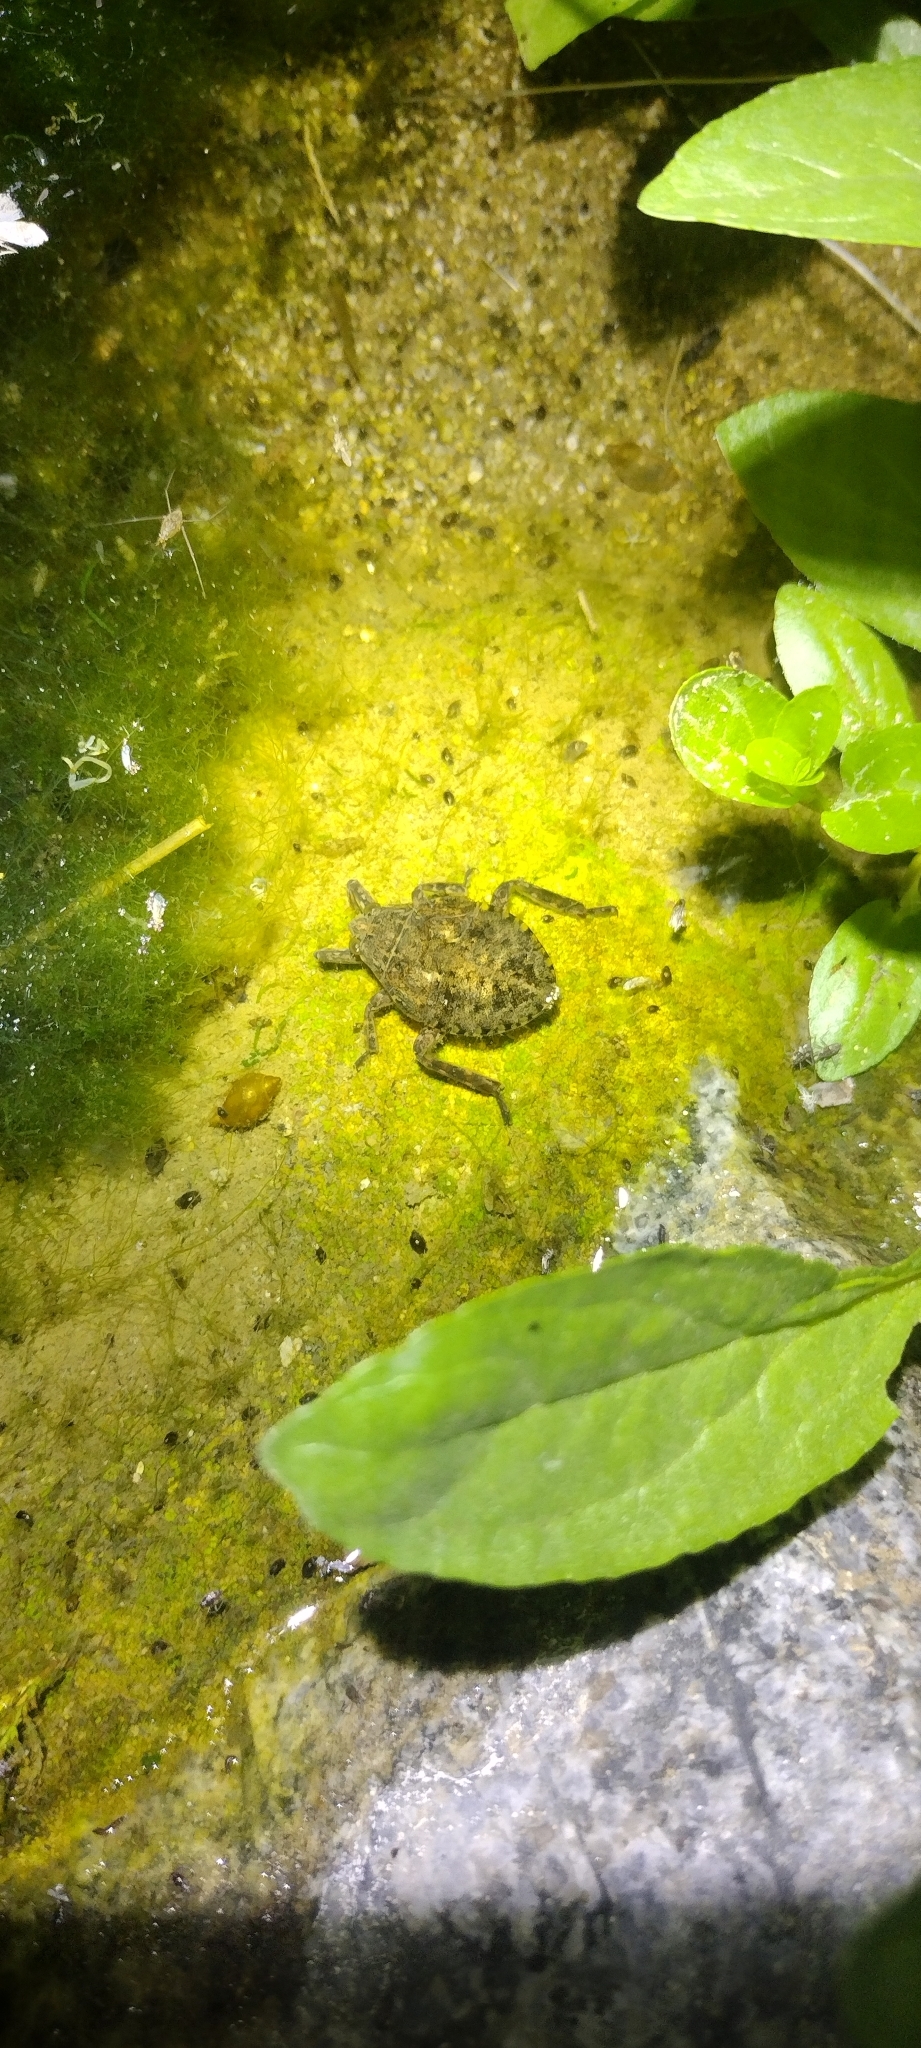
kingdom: Animalia
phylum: Arthropoda
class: Insecta
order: Hemiptera
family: Belostomatidae
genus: Abedus
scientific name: Abedus indentatus
